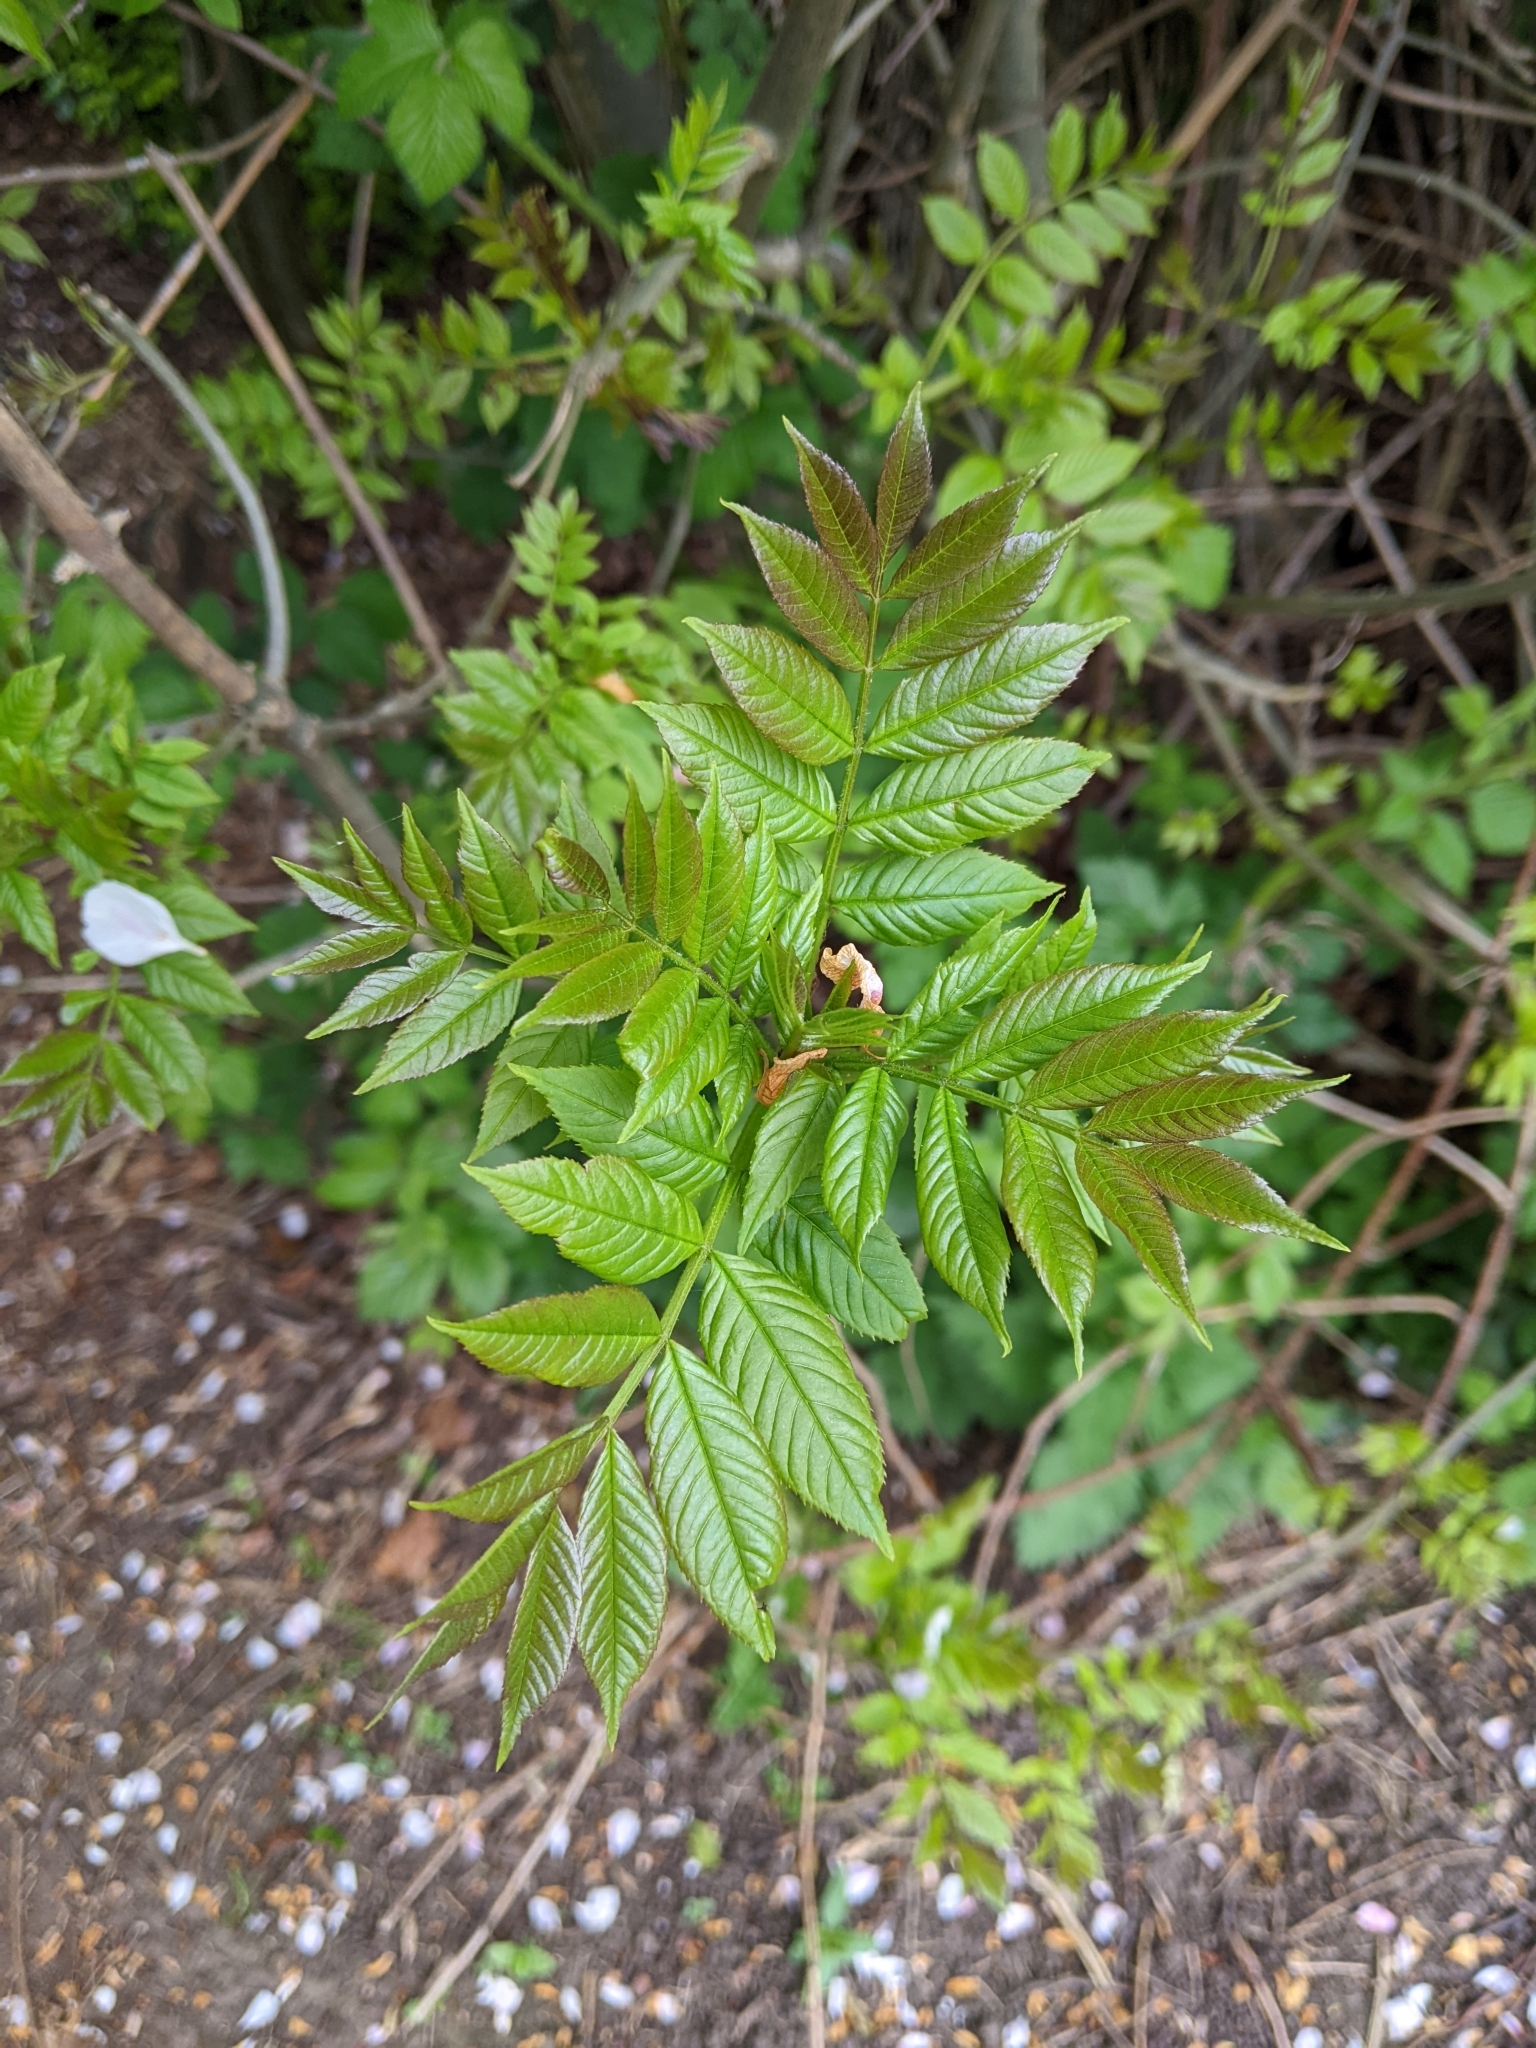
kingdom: Plantae
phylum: Tracheophyta
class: Magnoliopsida
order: Lamiales
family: Oleaceae
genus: Fraxinus
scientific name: Fraxinus excelsior
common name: European ash
